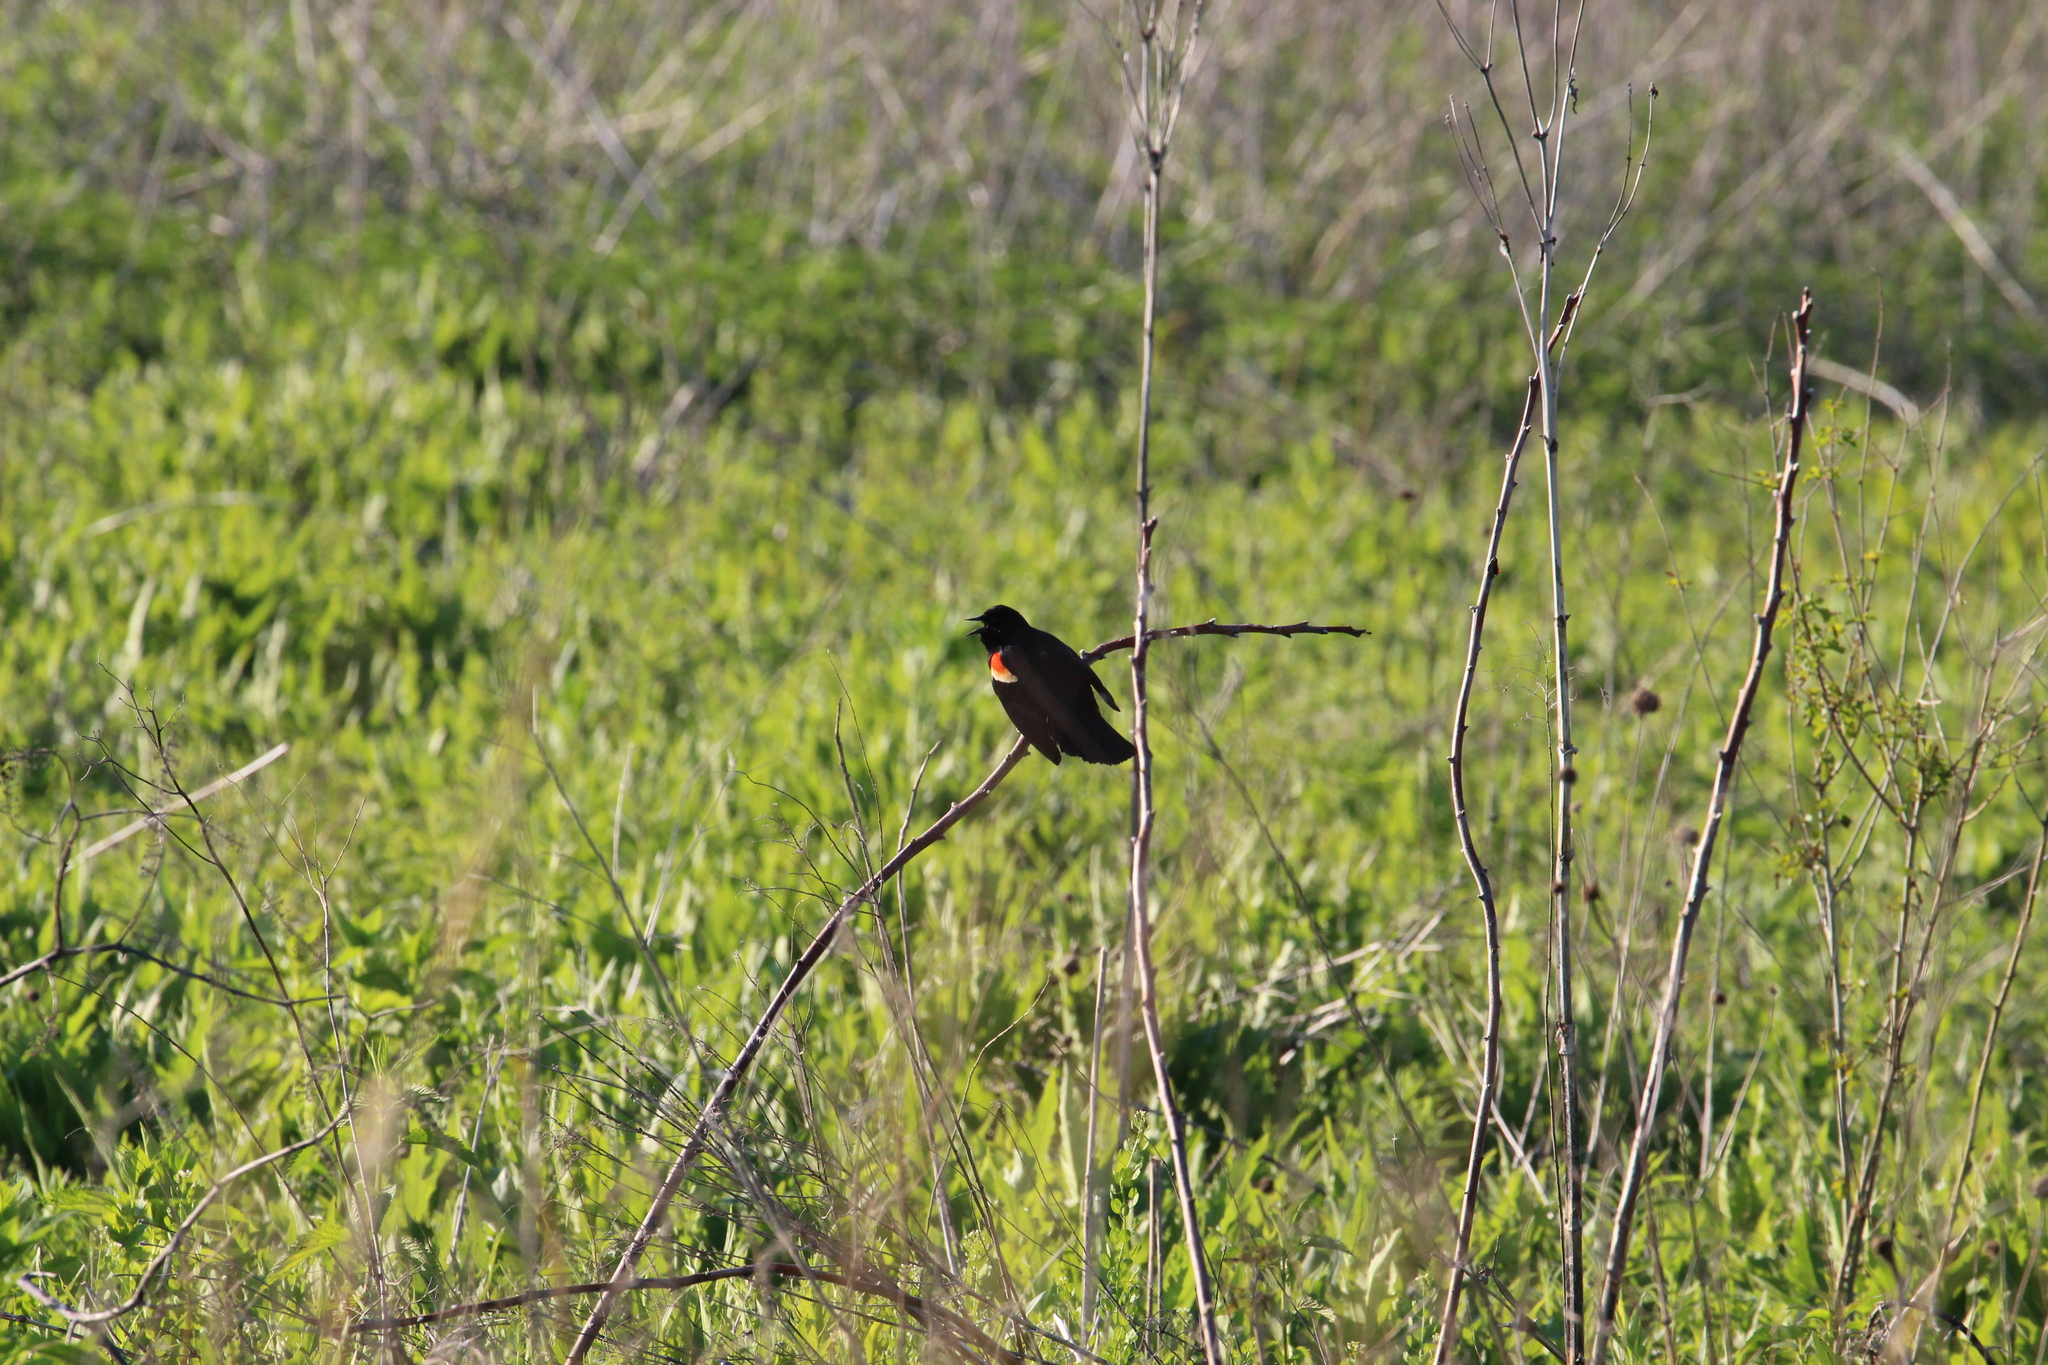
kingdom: Animalia
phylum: Chordata
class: Aves
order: Passeriformes
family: Icteridae
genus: Agelaius
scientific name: Agelaius phoeniceus
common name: Red-winged blackbird
